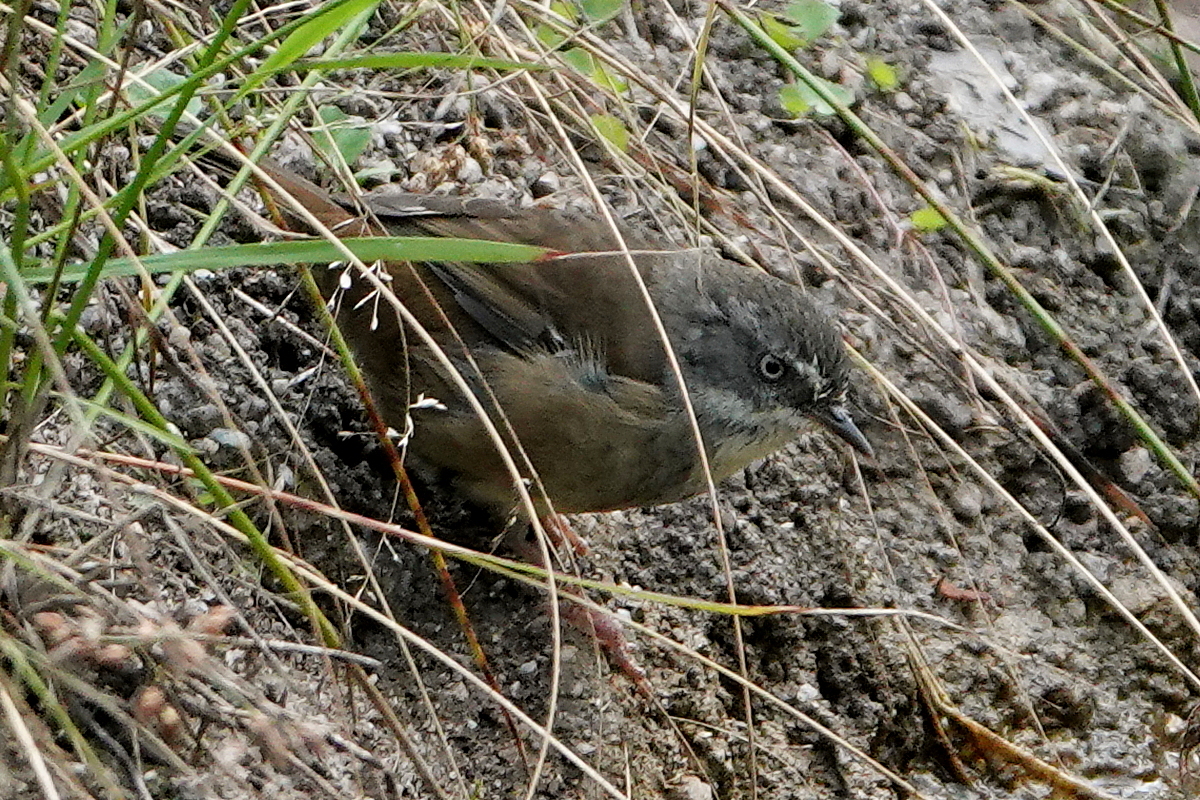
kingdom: Animalia
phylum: Chordata
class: Aves
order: Passeriformes
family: Acanthizidae
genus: Sericornis
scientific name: Sericornis frontalis
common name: White-browed scrubwren
